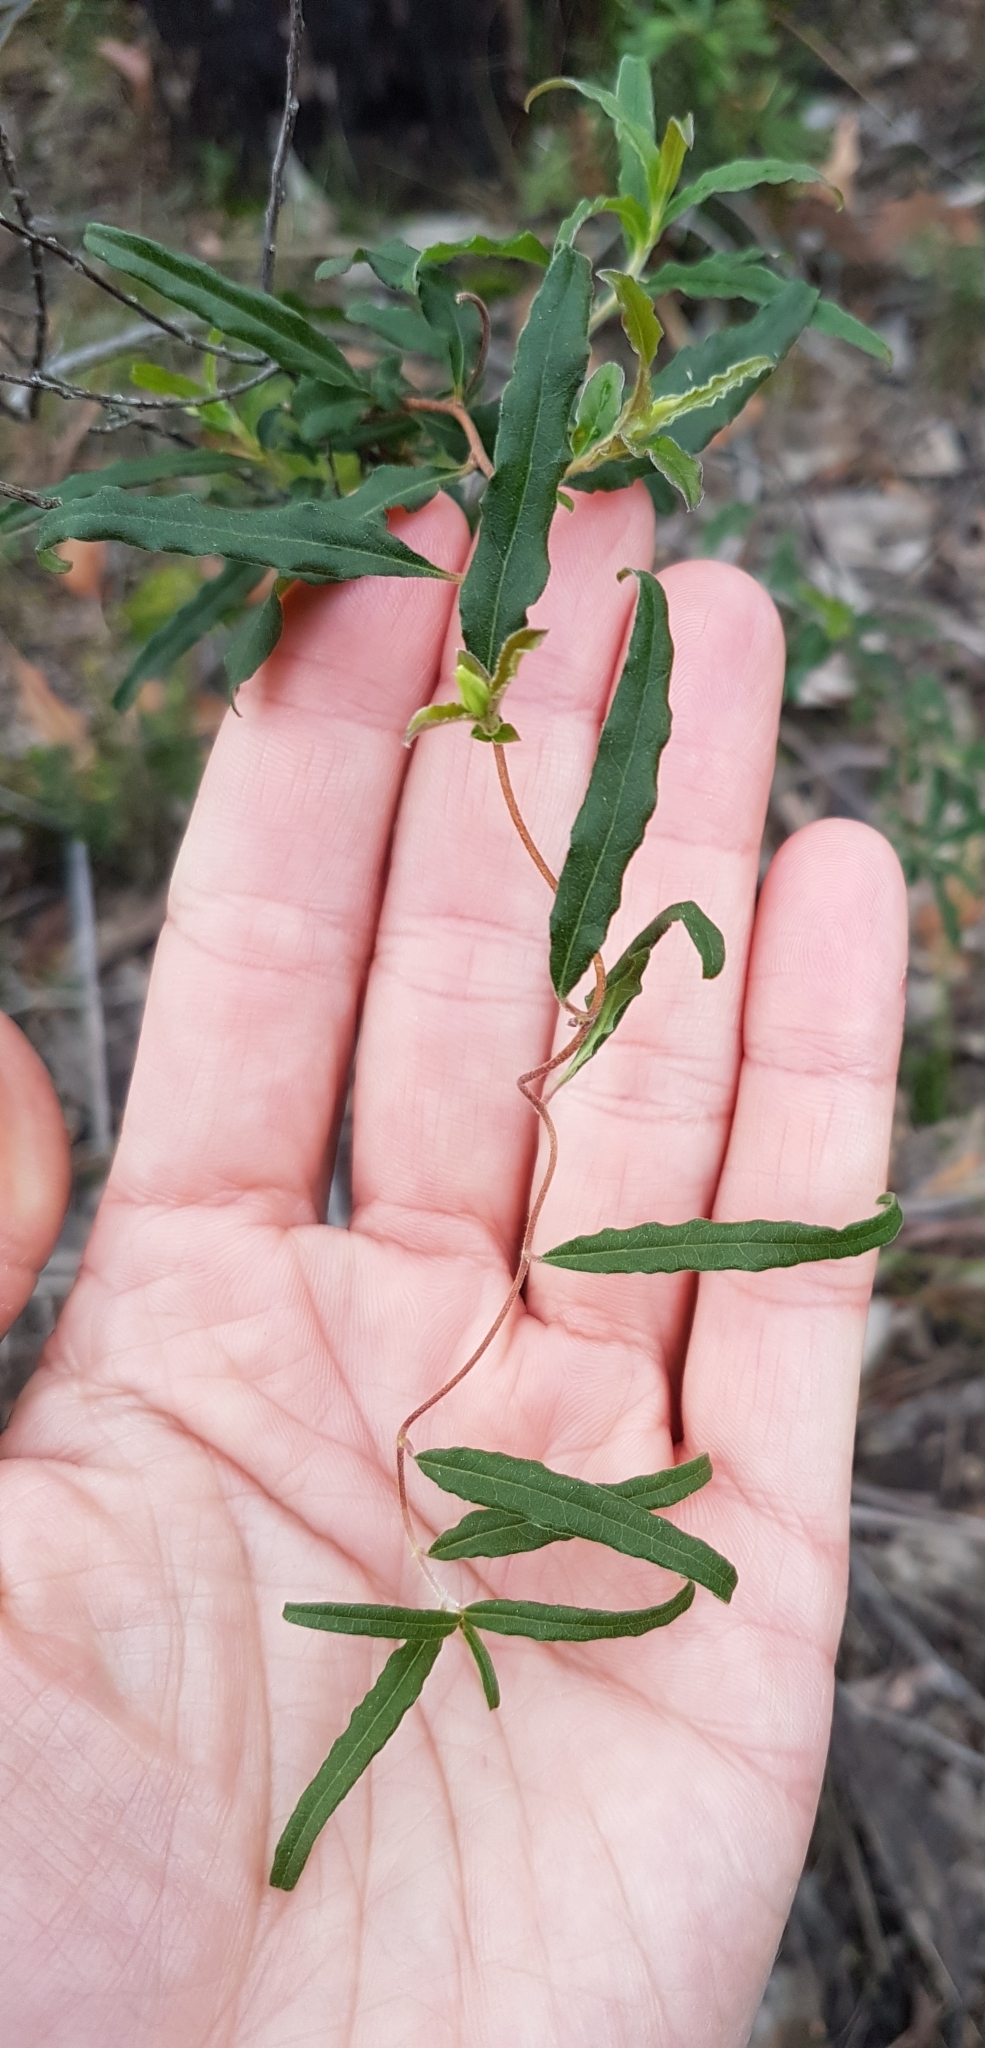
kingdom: Plantae
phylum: Tracheophyta
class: Magnoliopsida
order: Apiales
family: Pittosporaceae
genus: Billardiera
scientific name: Billardiera mutabilis
